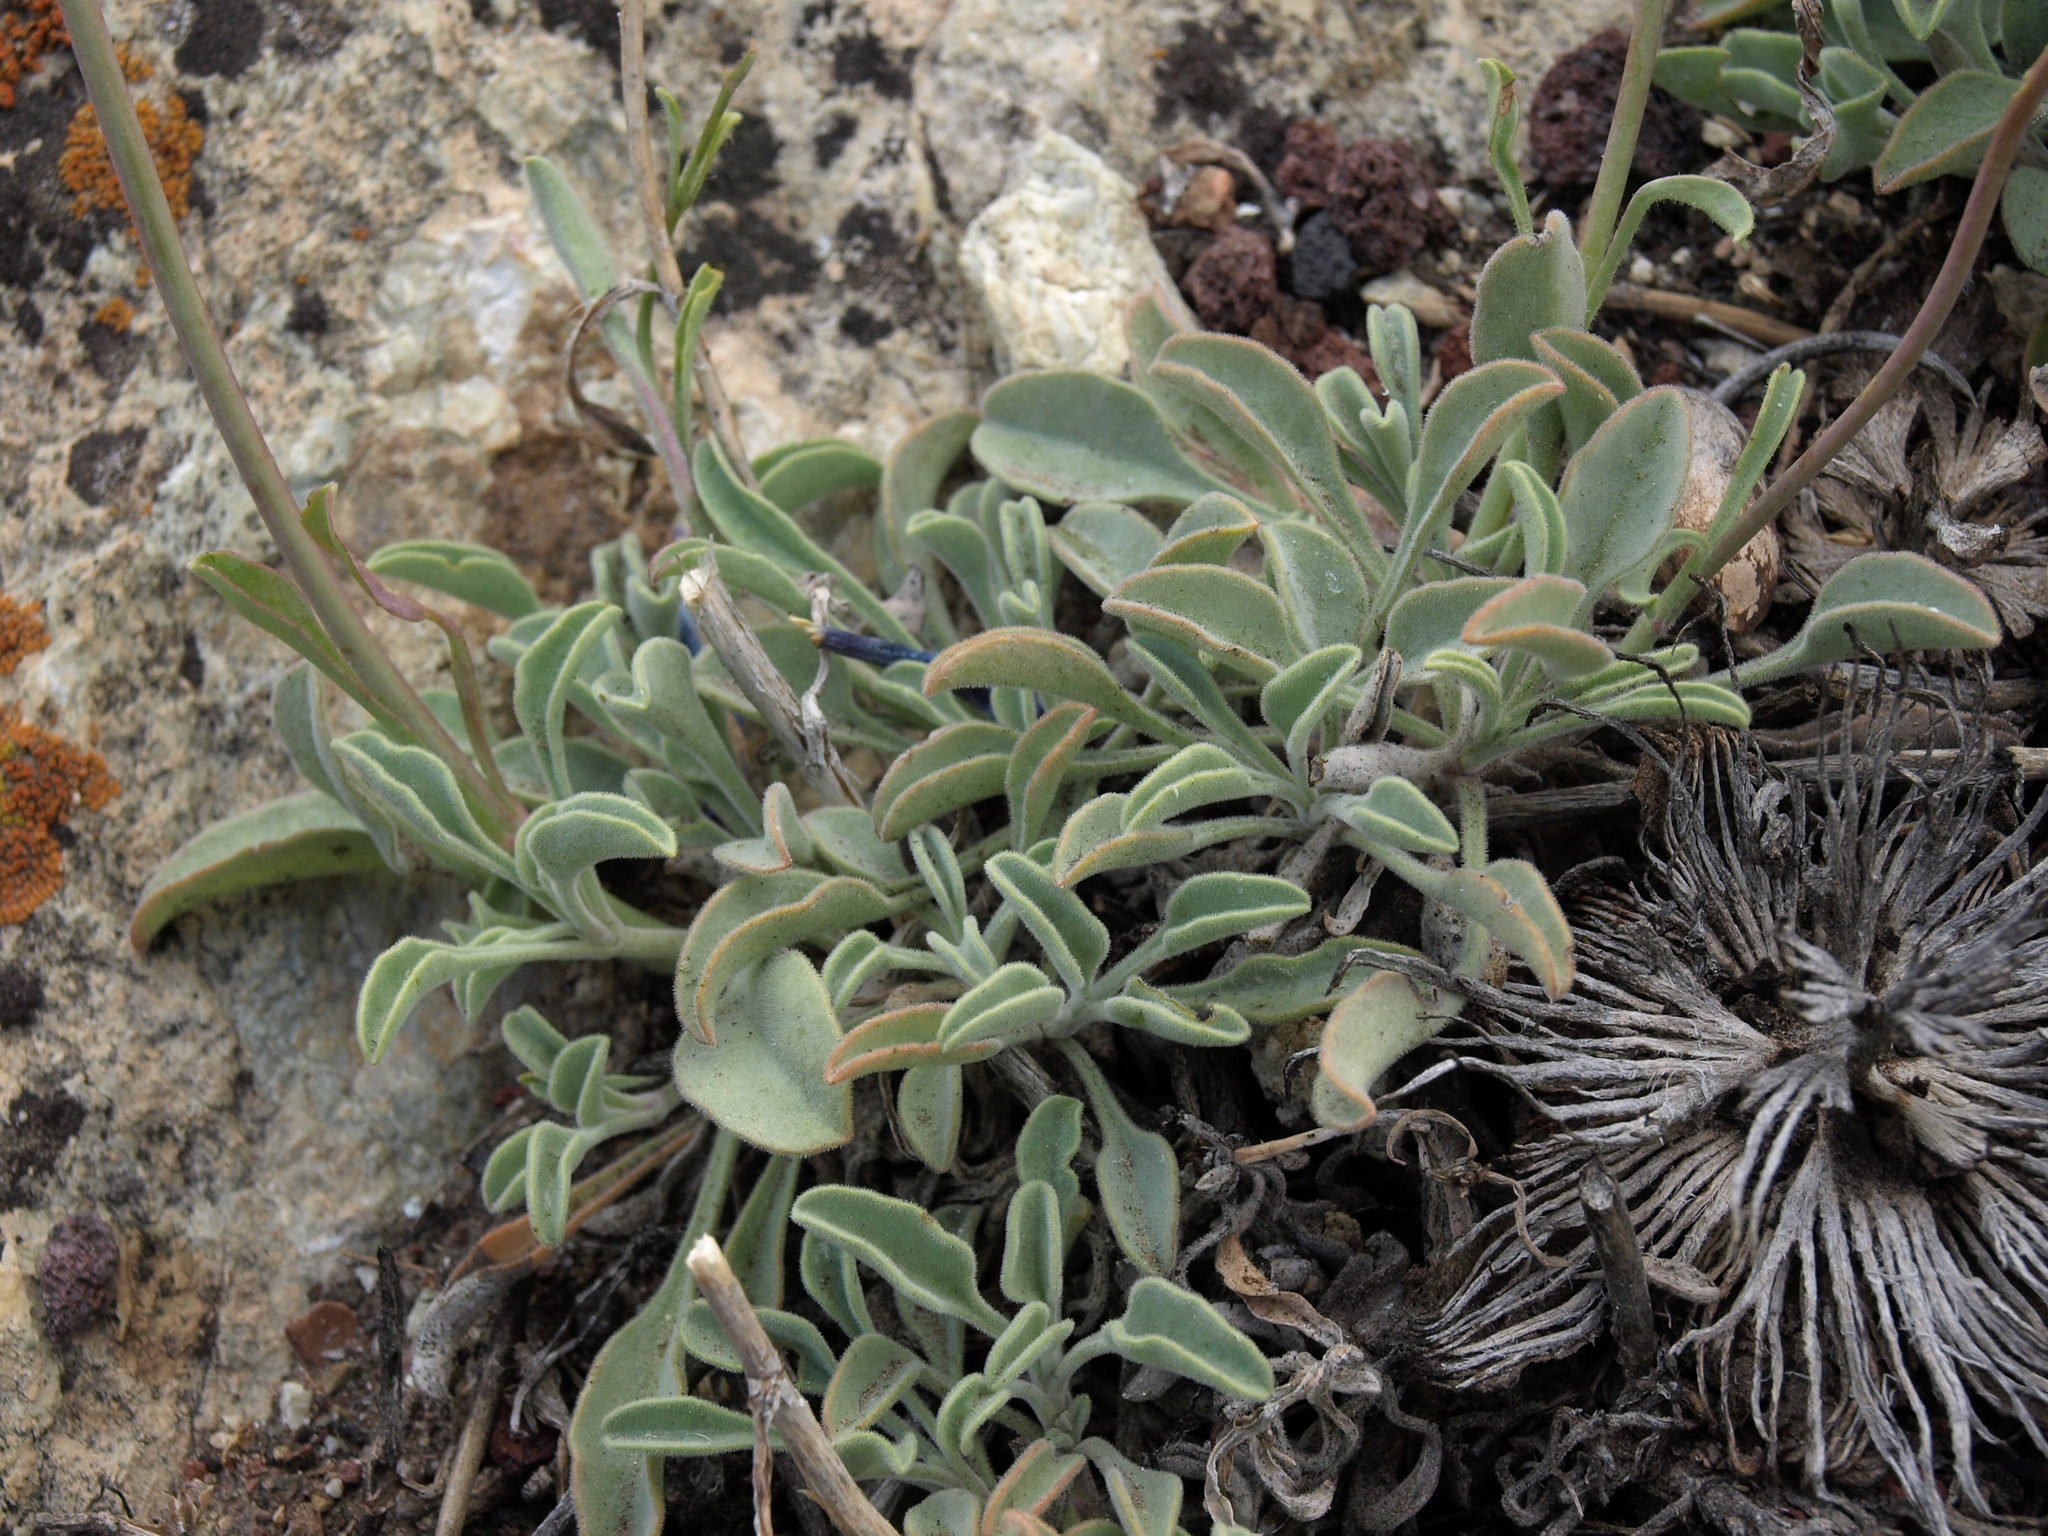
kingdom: Plantae
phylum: Tracheophyta
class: Magnoliopsida
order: Lamiales
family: Plantaginaceae
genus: Penstemon
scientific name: Penstemon scapoides
